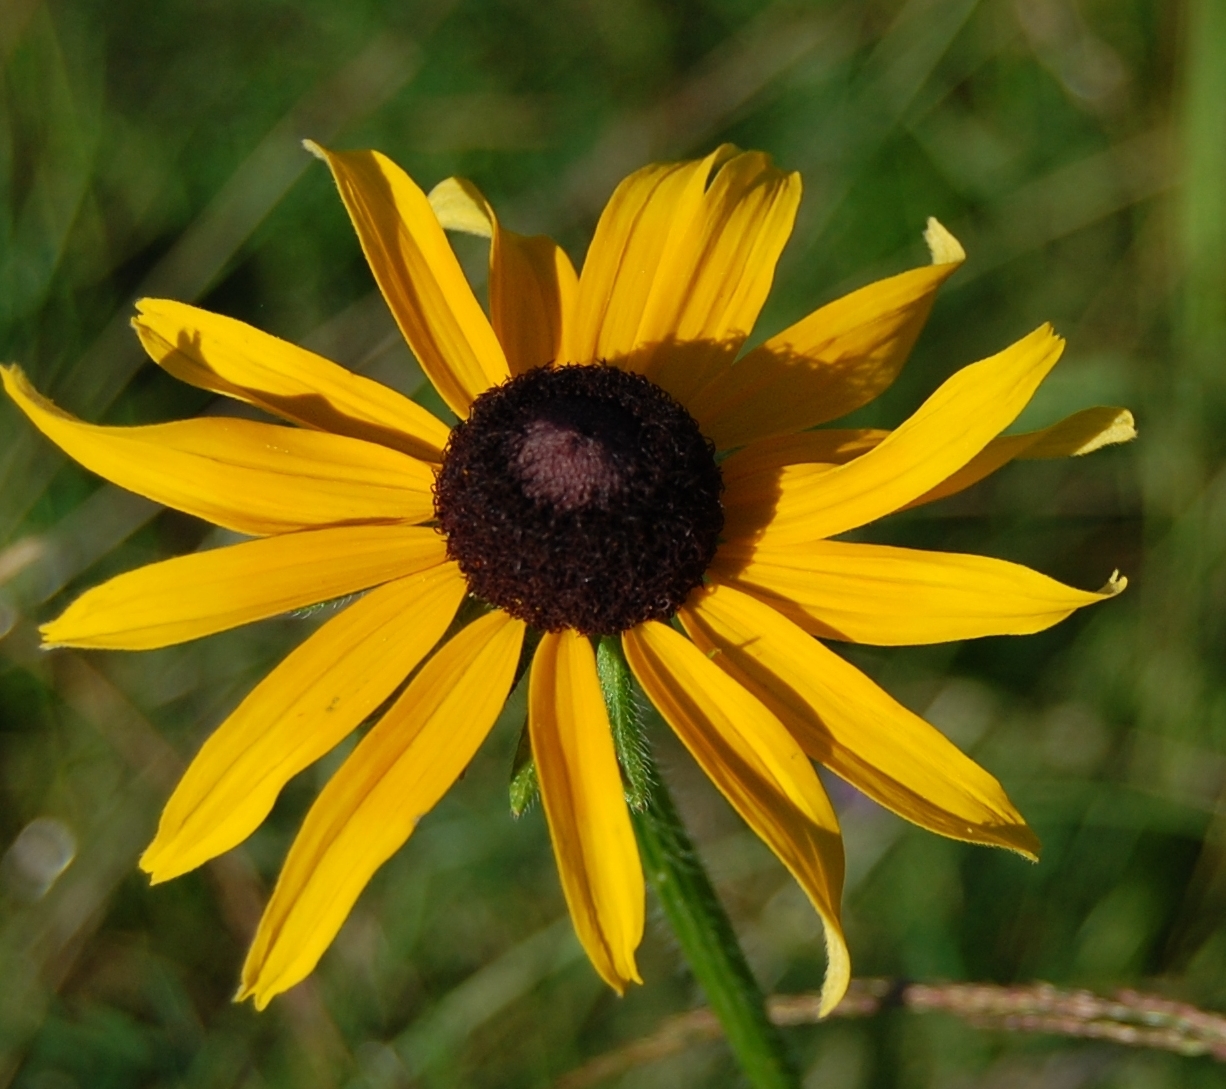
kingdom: Plantae
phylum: Tracheophyta
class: Magnoliopsida
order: Asterales
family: Asteraceae
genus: Rudbeckia
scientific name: Rudbeckia hirta
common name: Black-eyed-susan
